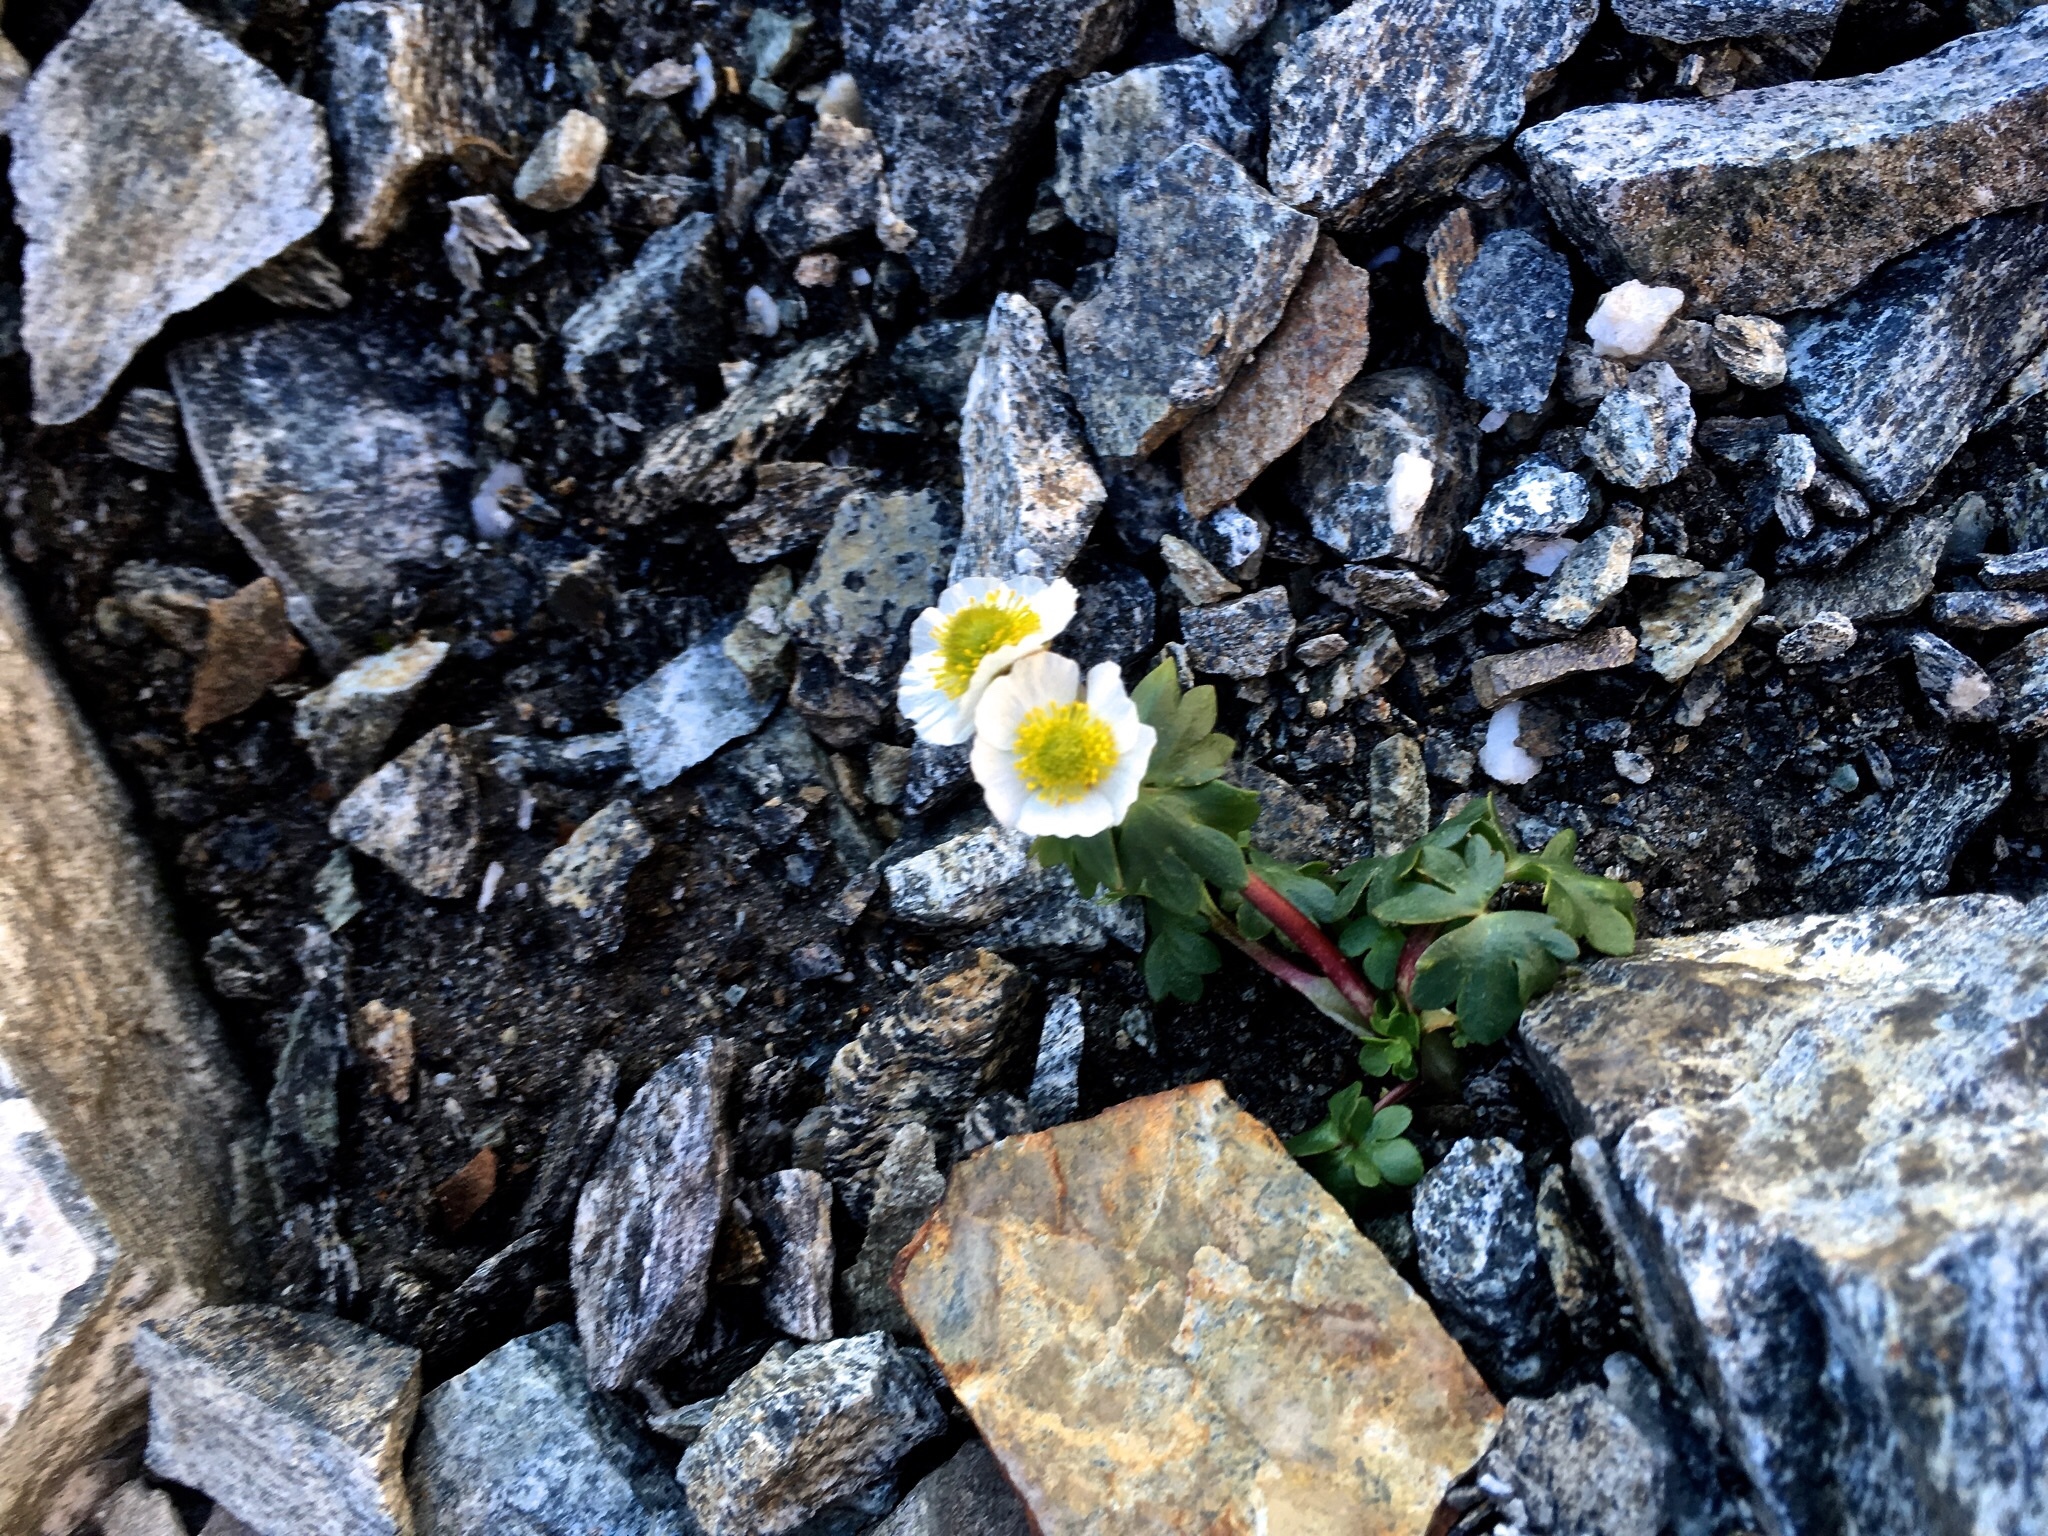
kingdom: Plantae
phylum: Tracheophyta
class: Magnoliopsida
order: Ranunculales
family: Ranunculaceae
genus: Ranunculus
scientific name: Ranunculus glacialis
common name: Glacier buttercup
